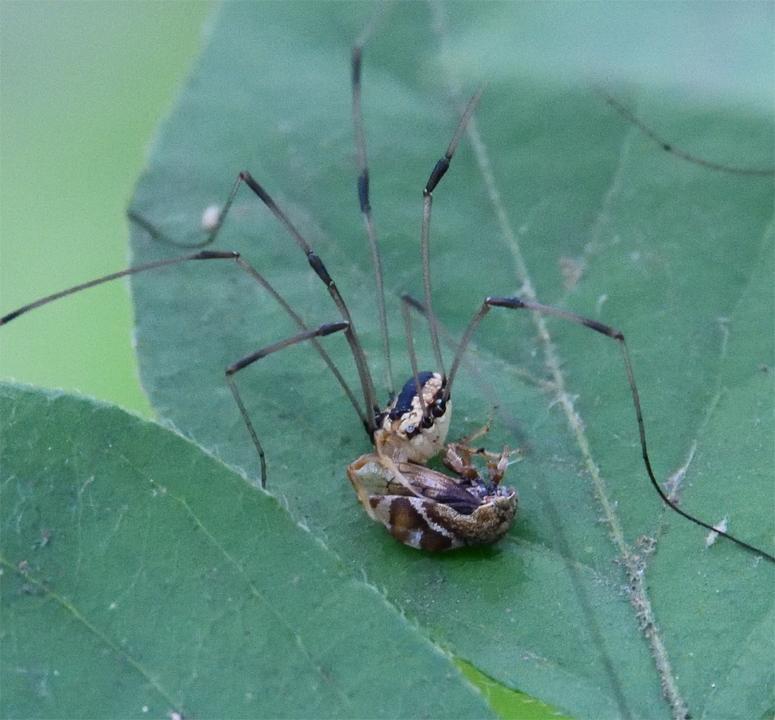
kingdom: Animalia
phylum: Arthropoda
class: Arachnida
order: Opiliones
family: Sclerosomatidae
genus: Leiobunum
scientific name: Leiobunum vittatum
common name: Eastern harvestman
